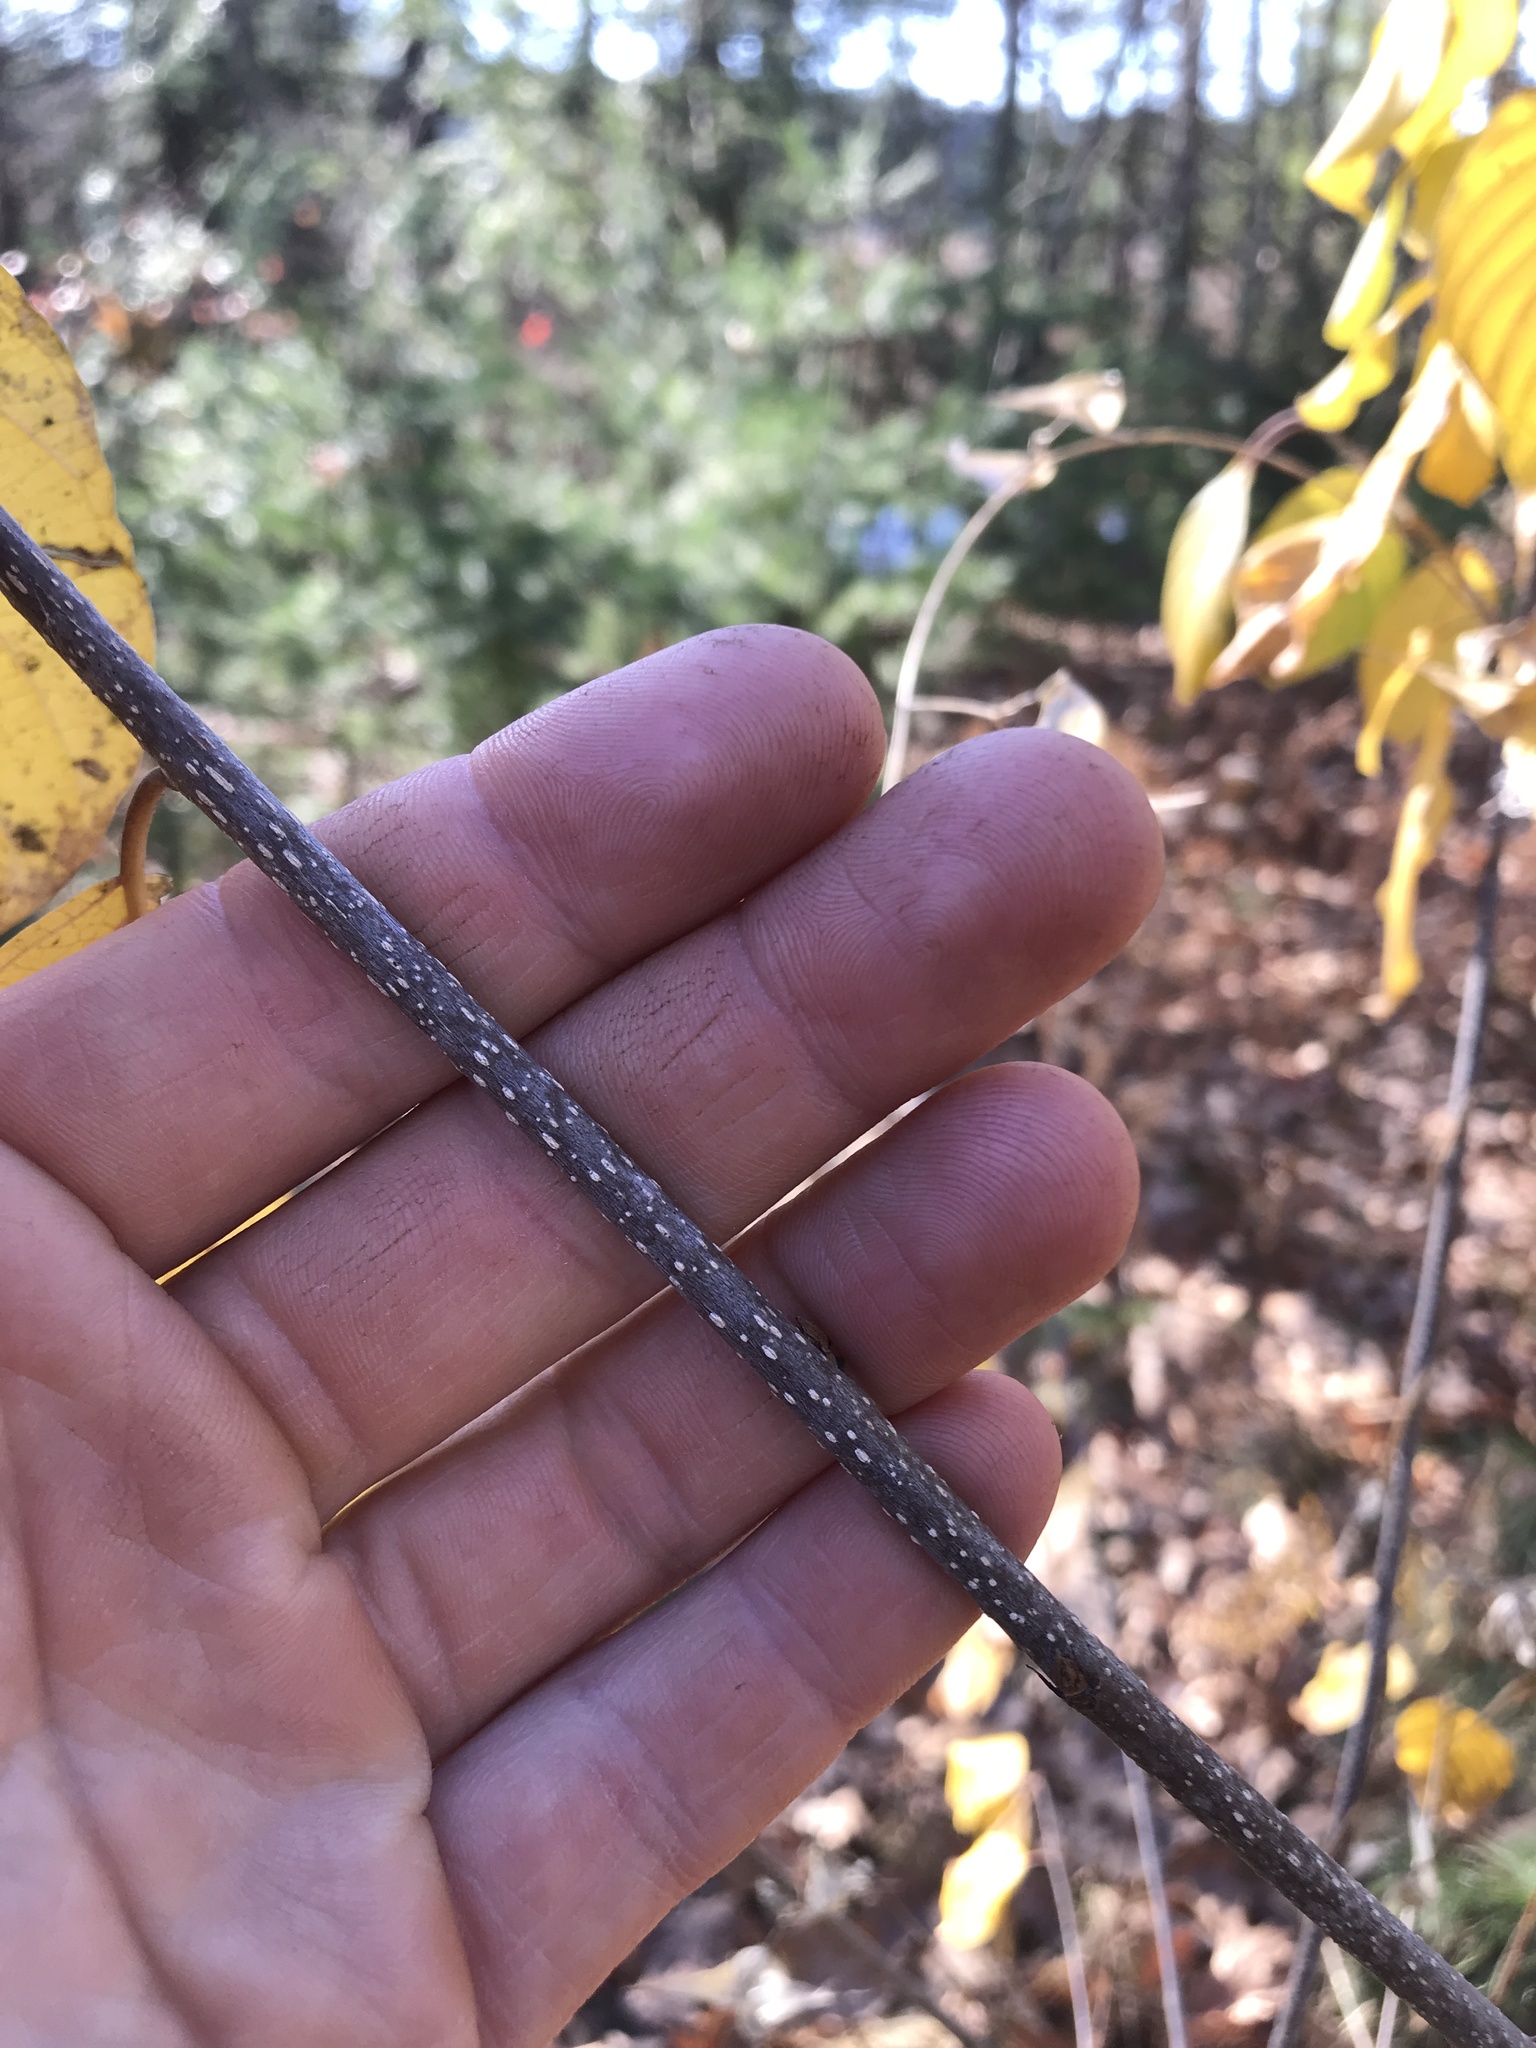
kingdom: Plantae
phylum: Tracheophyta
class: Magnoliopsida
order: Rosales
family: Rhamnaceae
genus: Frangula
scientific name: Frangula alnus
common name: Alder buckthorn
